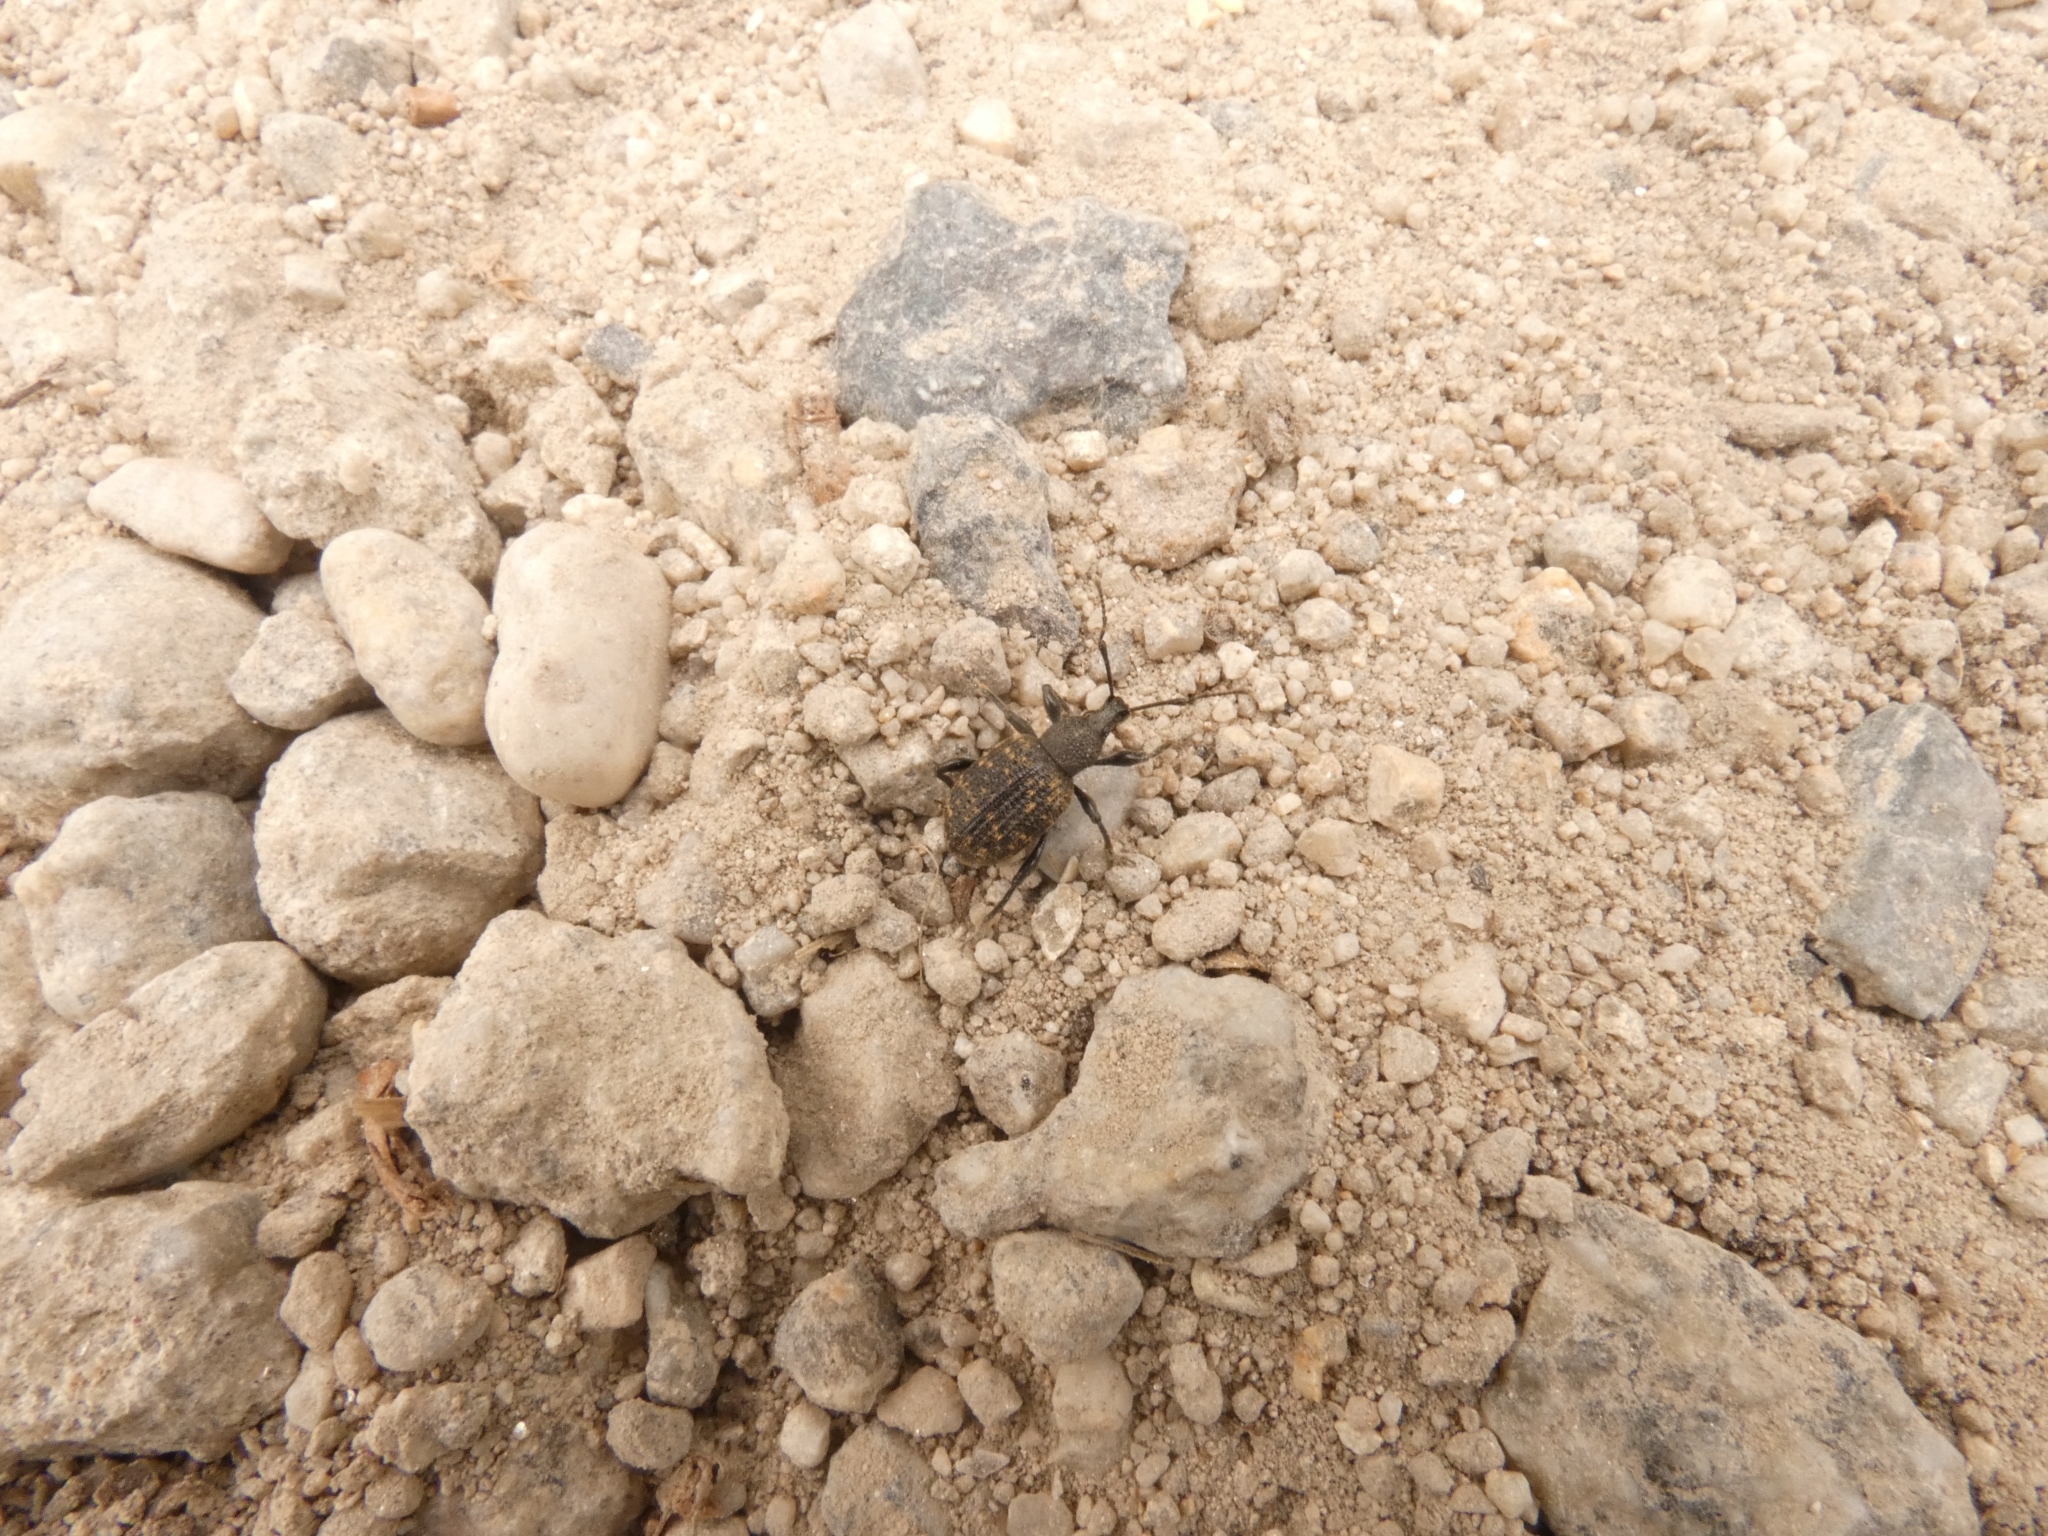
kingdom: Animalia
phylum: Arthropoda
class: Insecta
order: Coleoptera
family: Curculionidae
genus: Otiorhynchus
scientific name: Otiorhynchus sulcatus
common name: Black vine weevil
